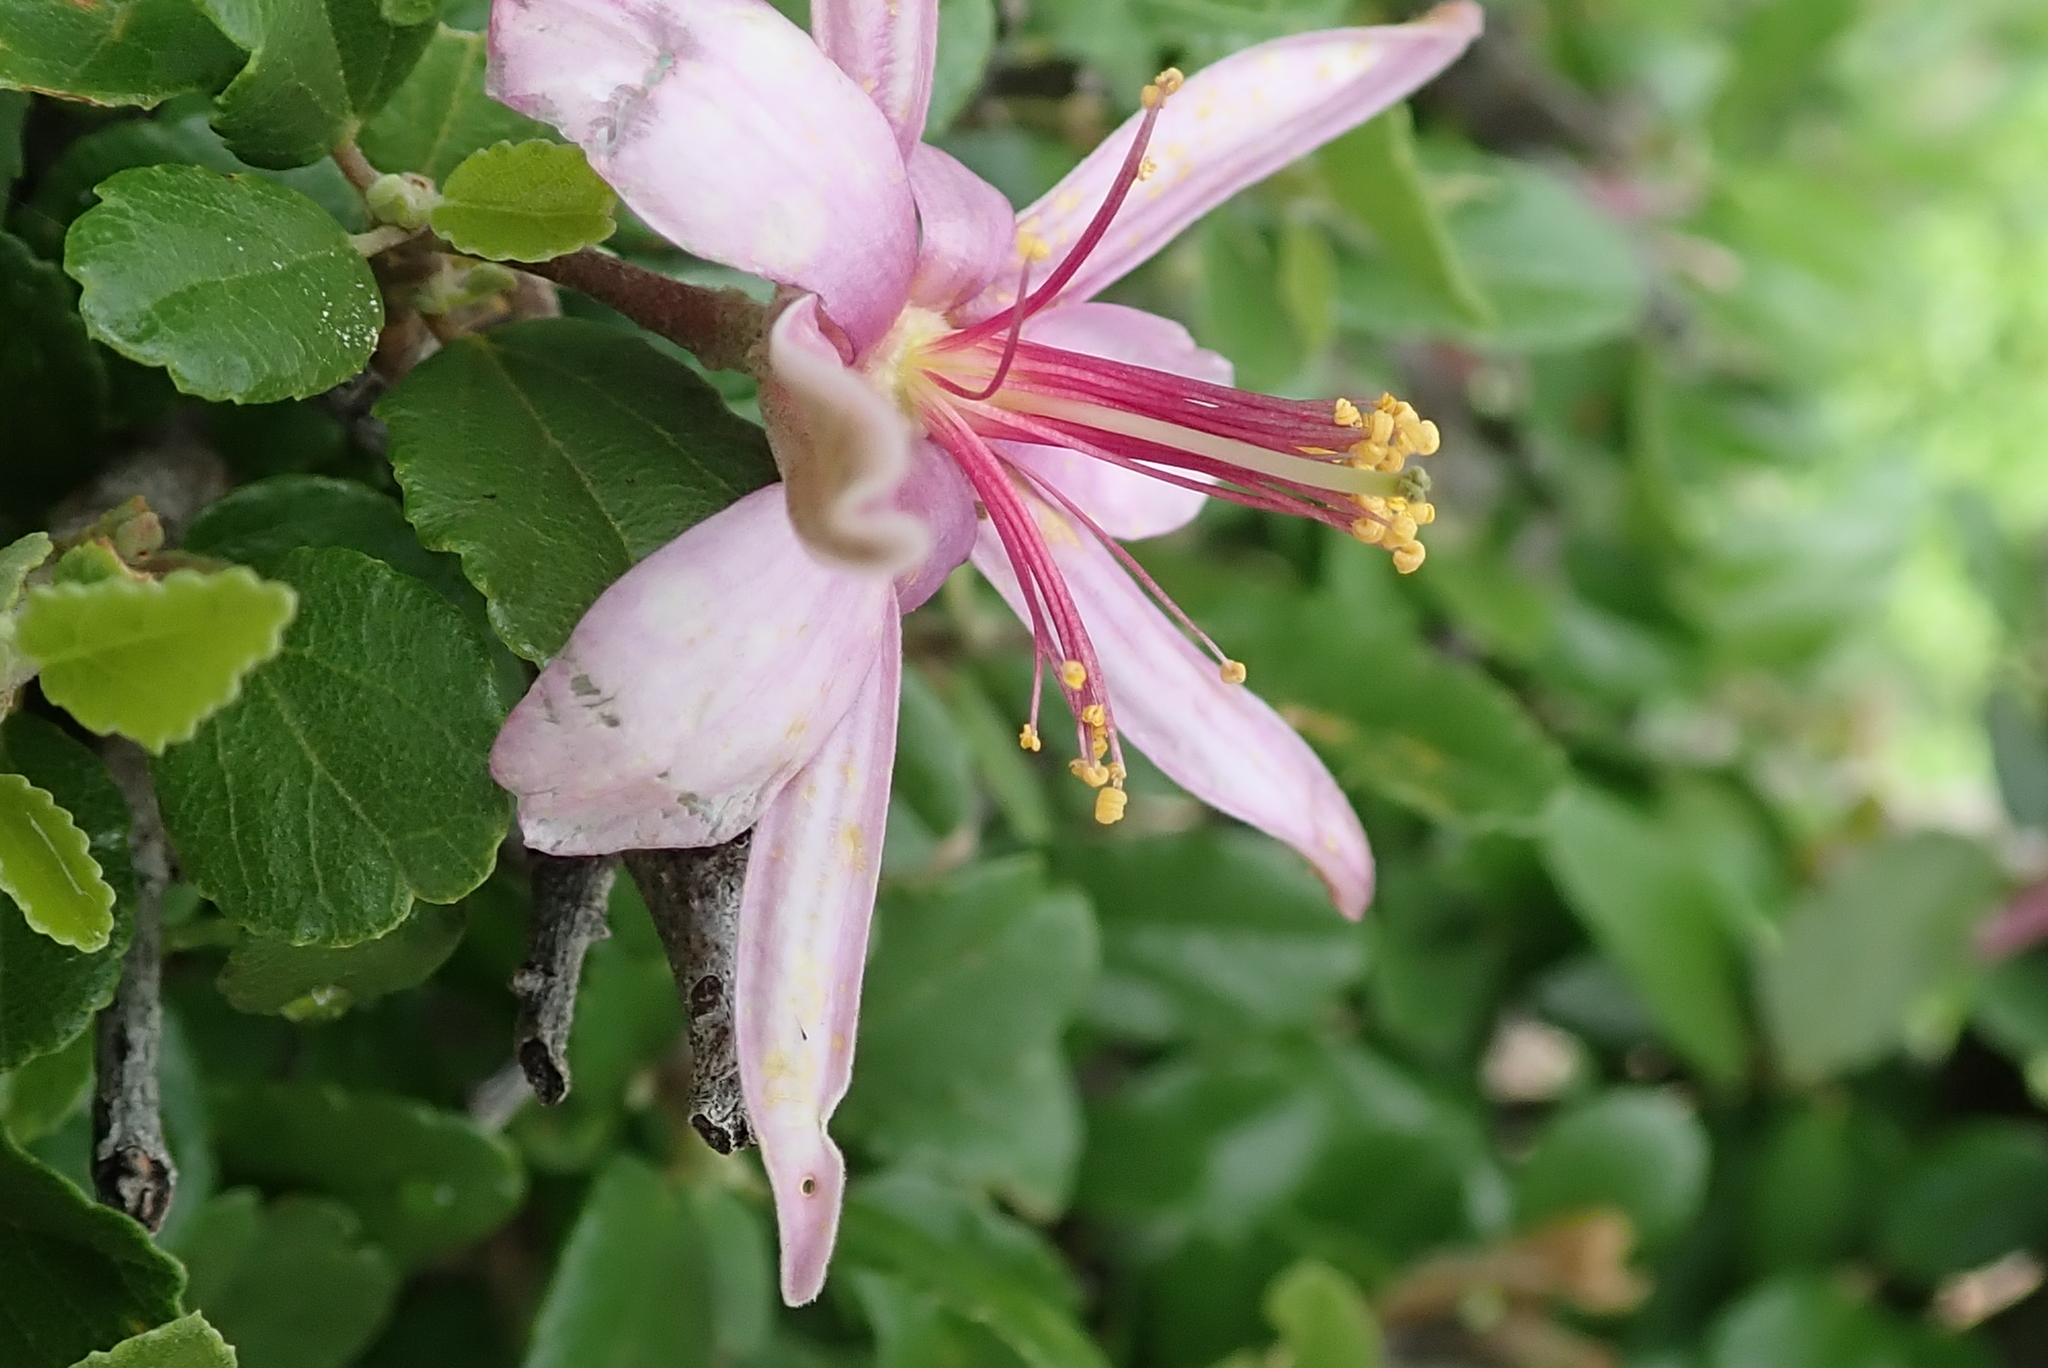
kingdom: Plantae
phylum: Tracheophyta
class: Magnoliopsida
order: Malvales
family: Malvaceae
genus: Grewia
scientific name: Grewia robusta
